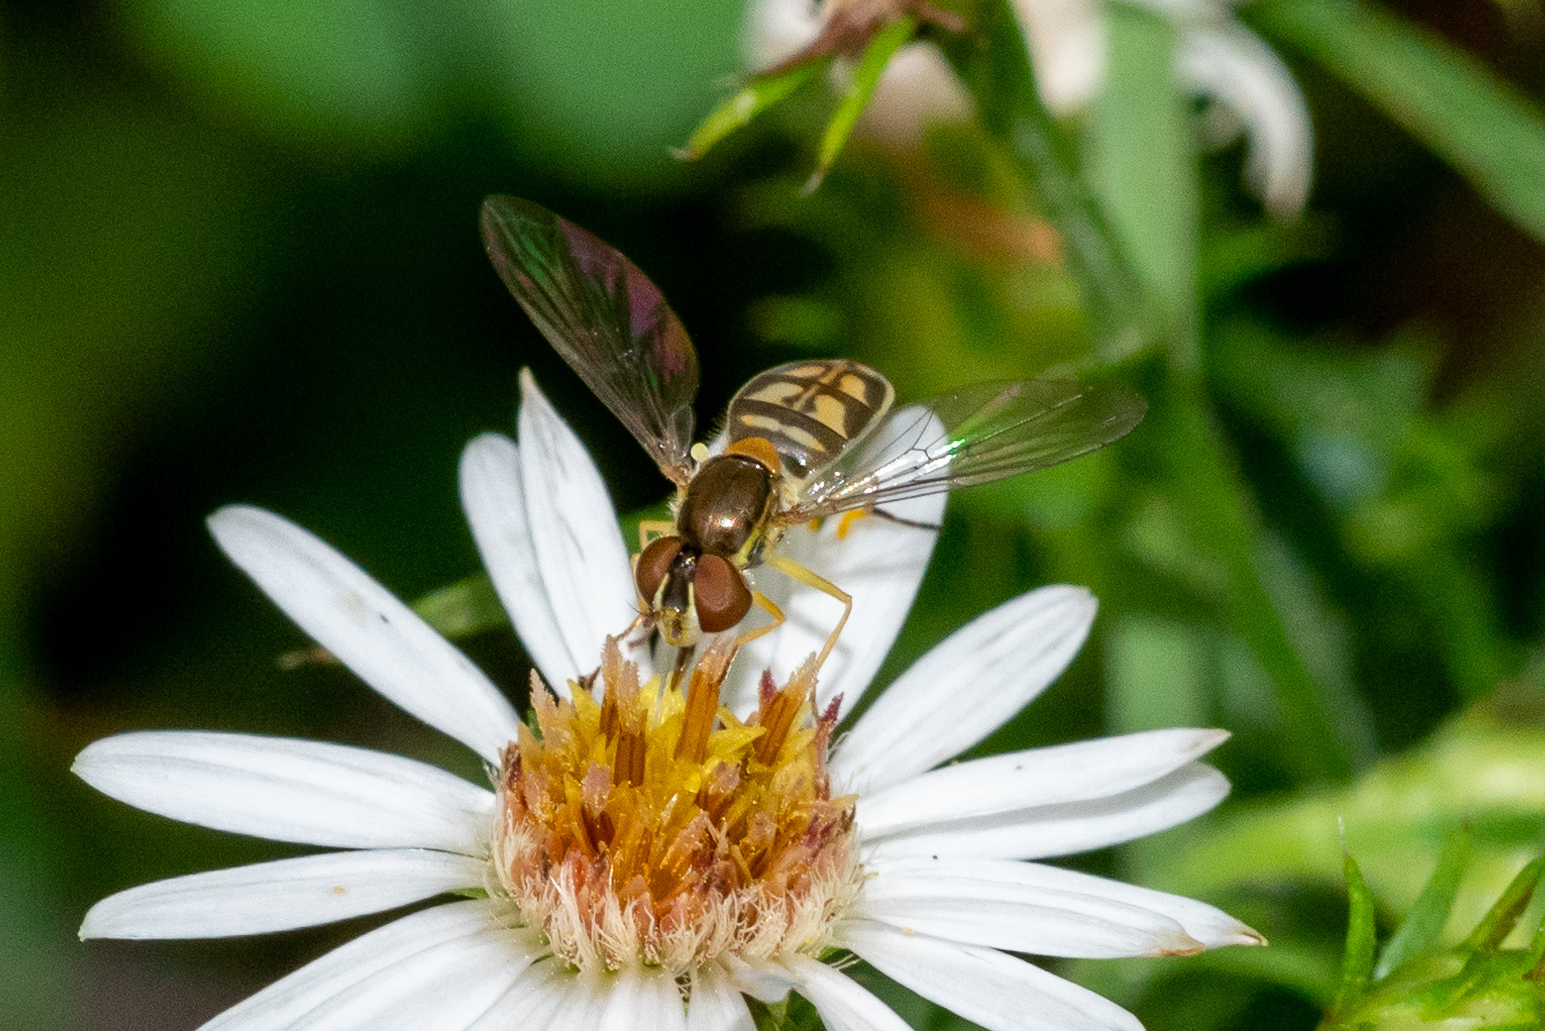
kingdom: Animalia
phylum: Arthropoda
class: Insecta
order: Diptera
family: Syrphidae
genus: Toxomerus
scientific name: Toxomerus marginatus
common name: Syrphid fly
